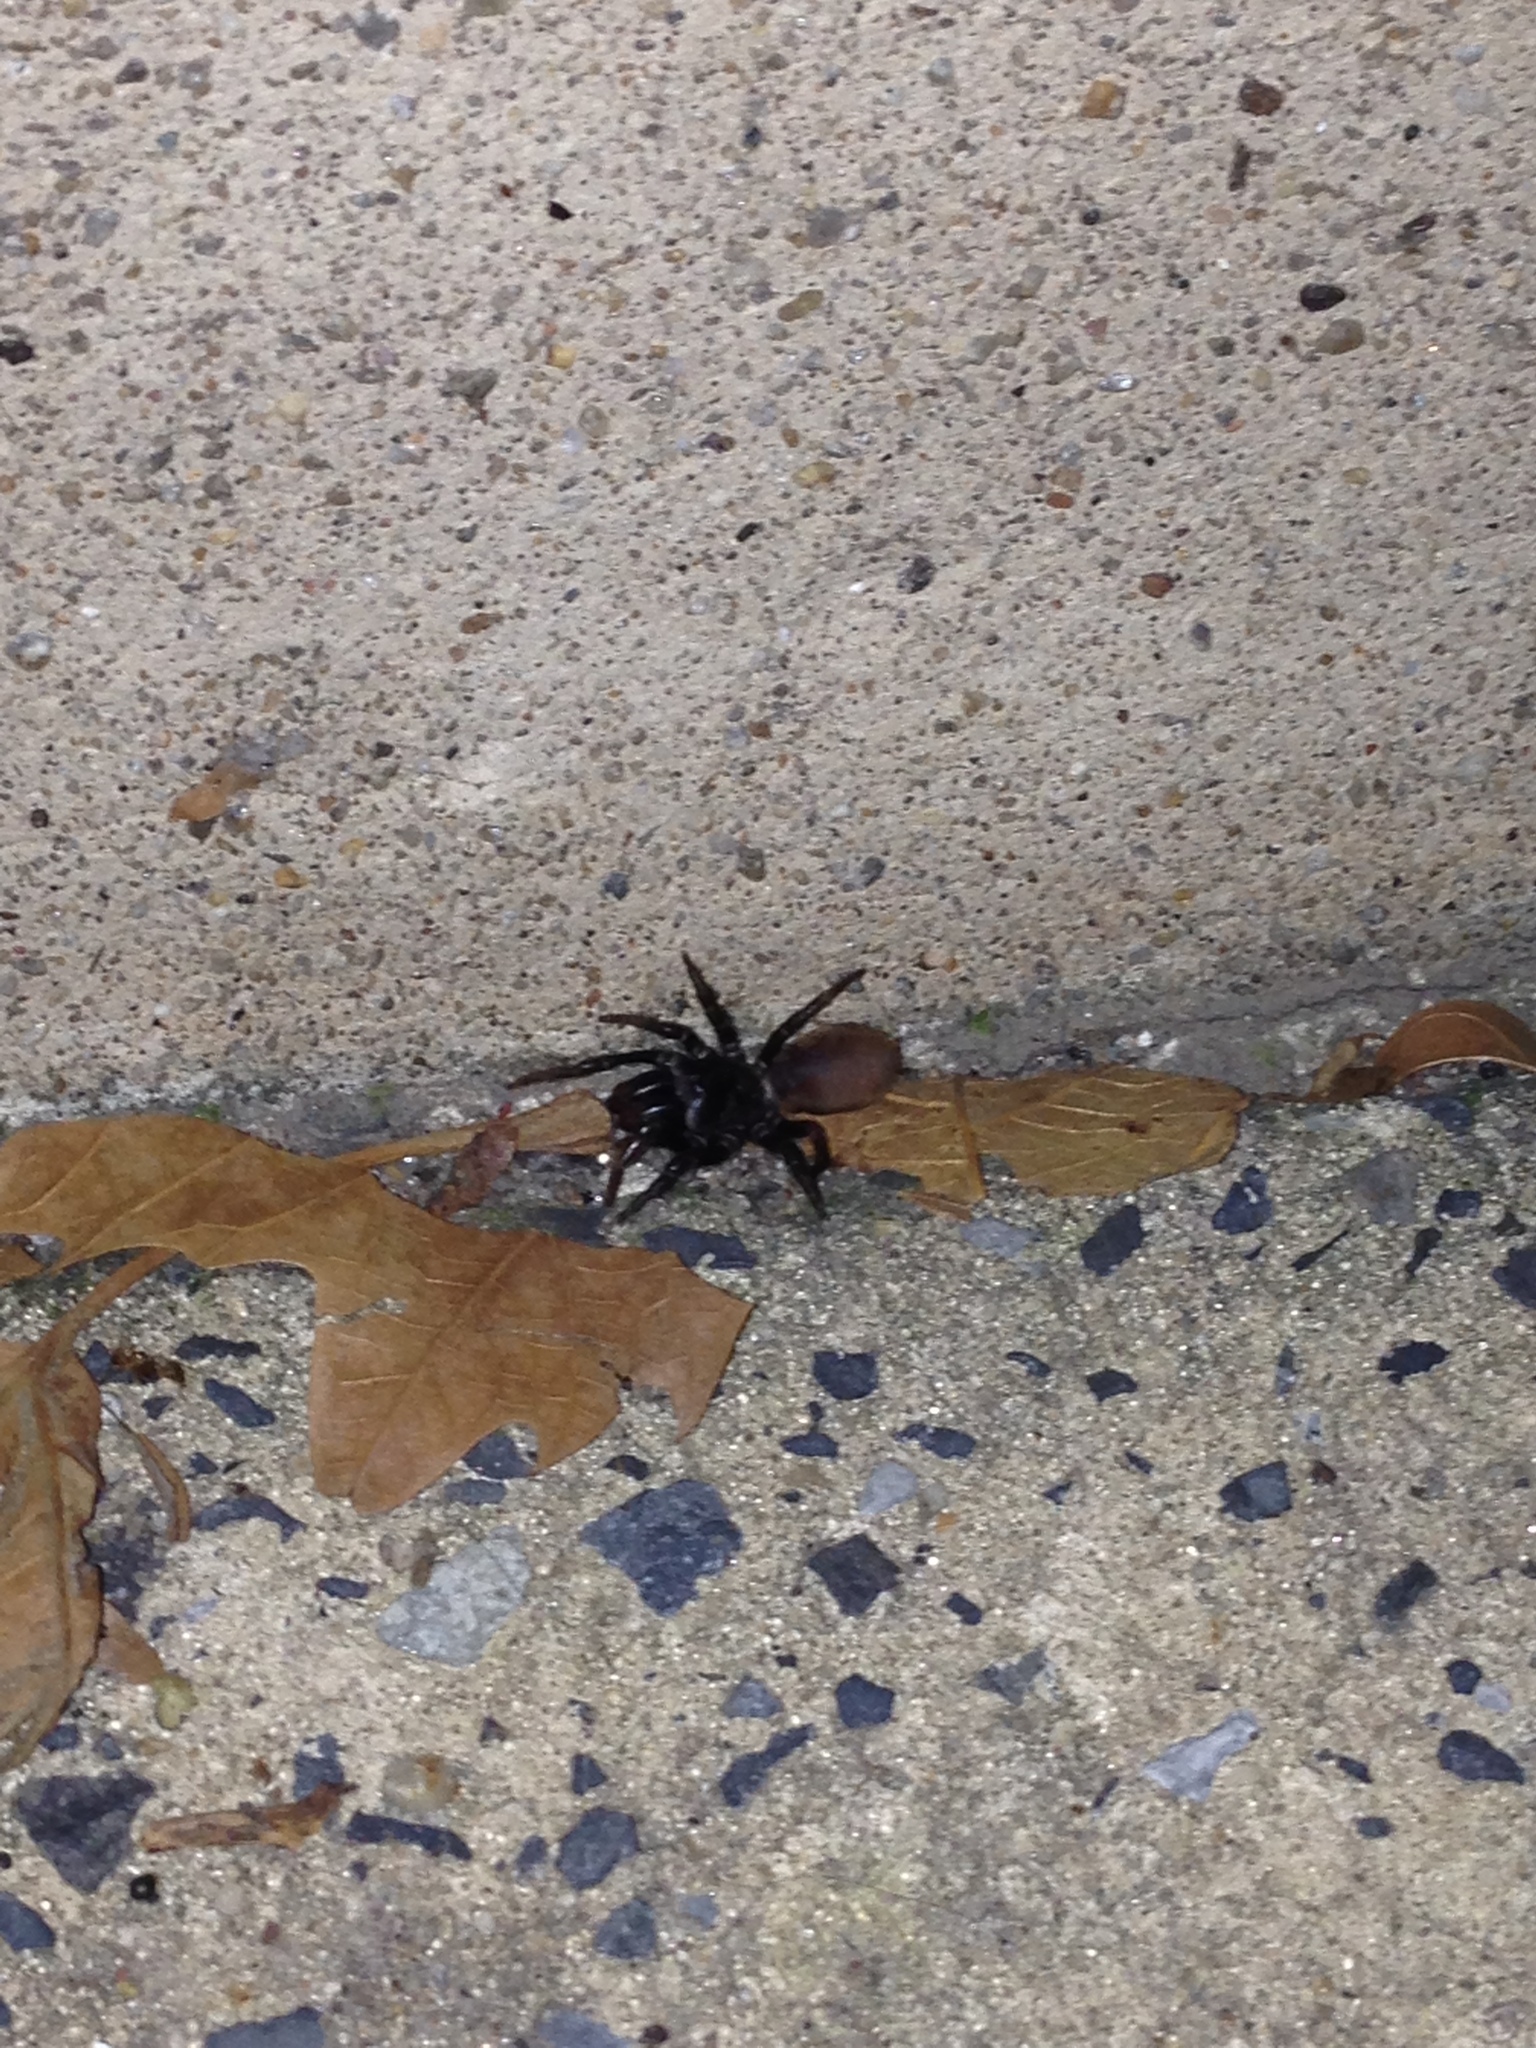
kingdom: Animalia
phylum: Arthropoda
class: Arachnida
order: Araneae
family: Atypidae
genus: Atypus
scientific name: Atypus karschi
